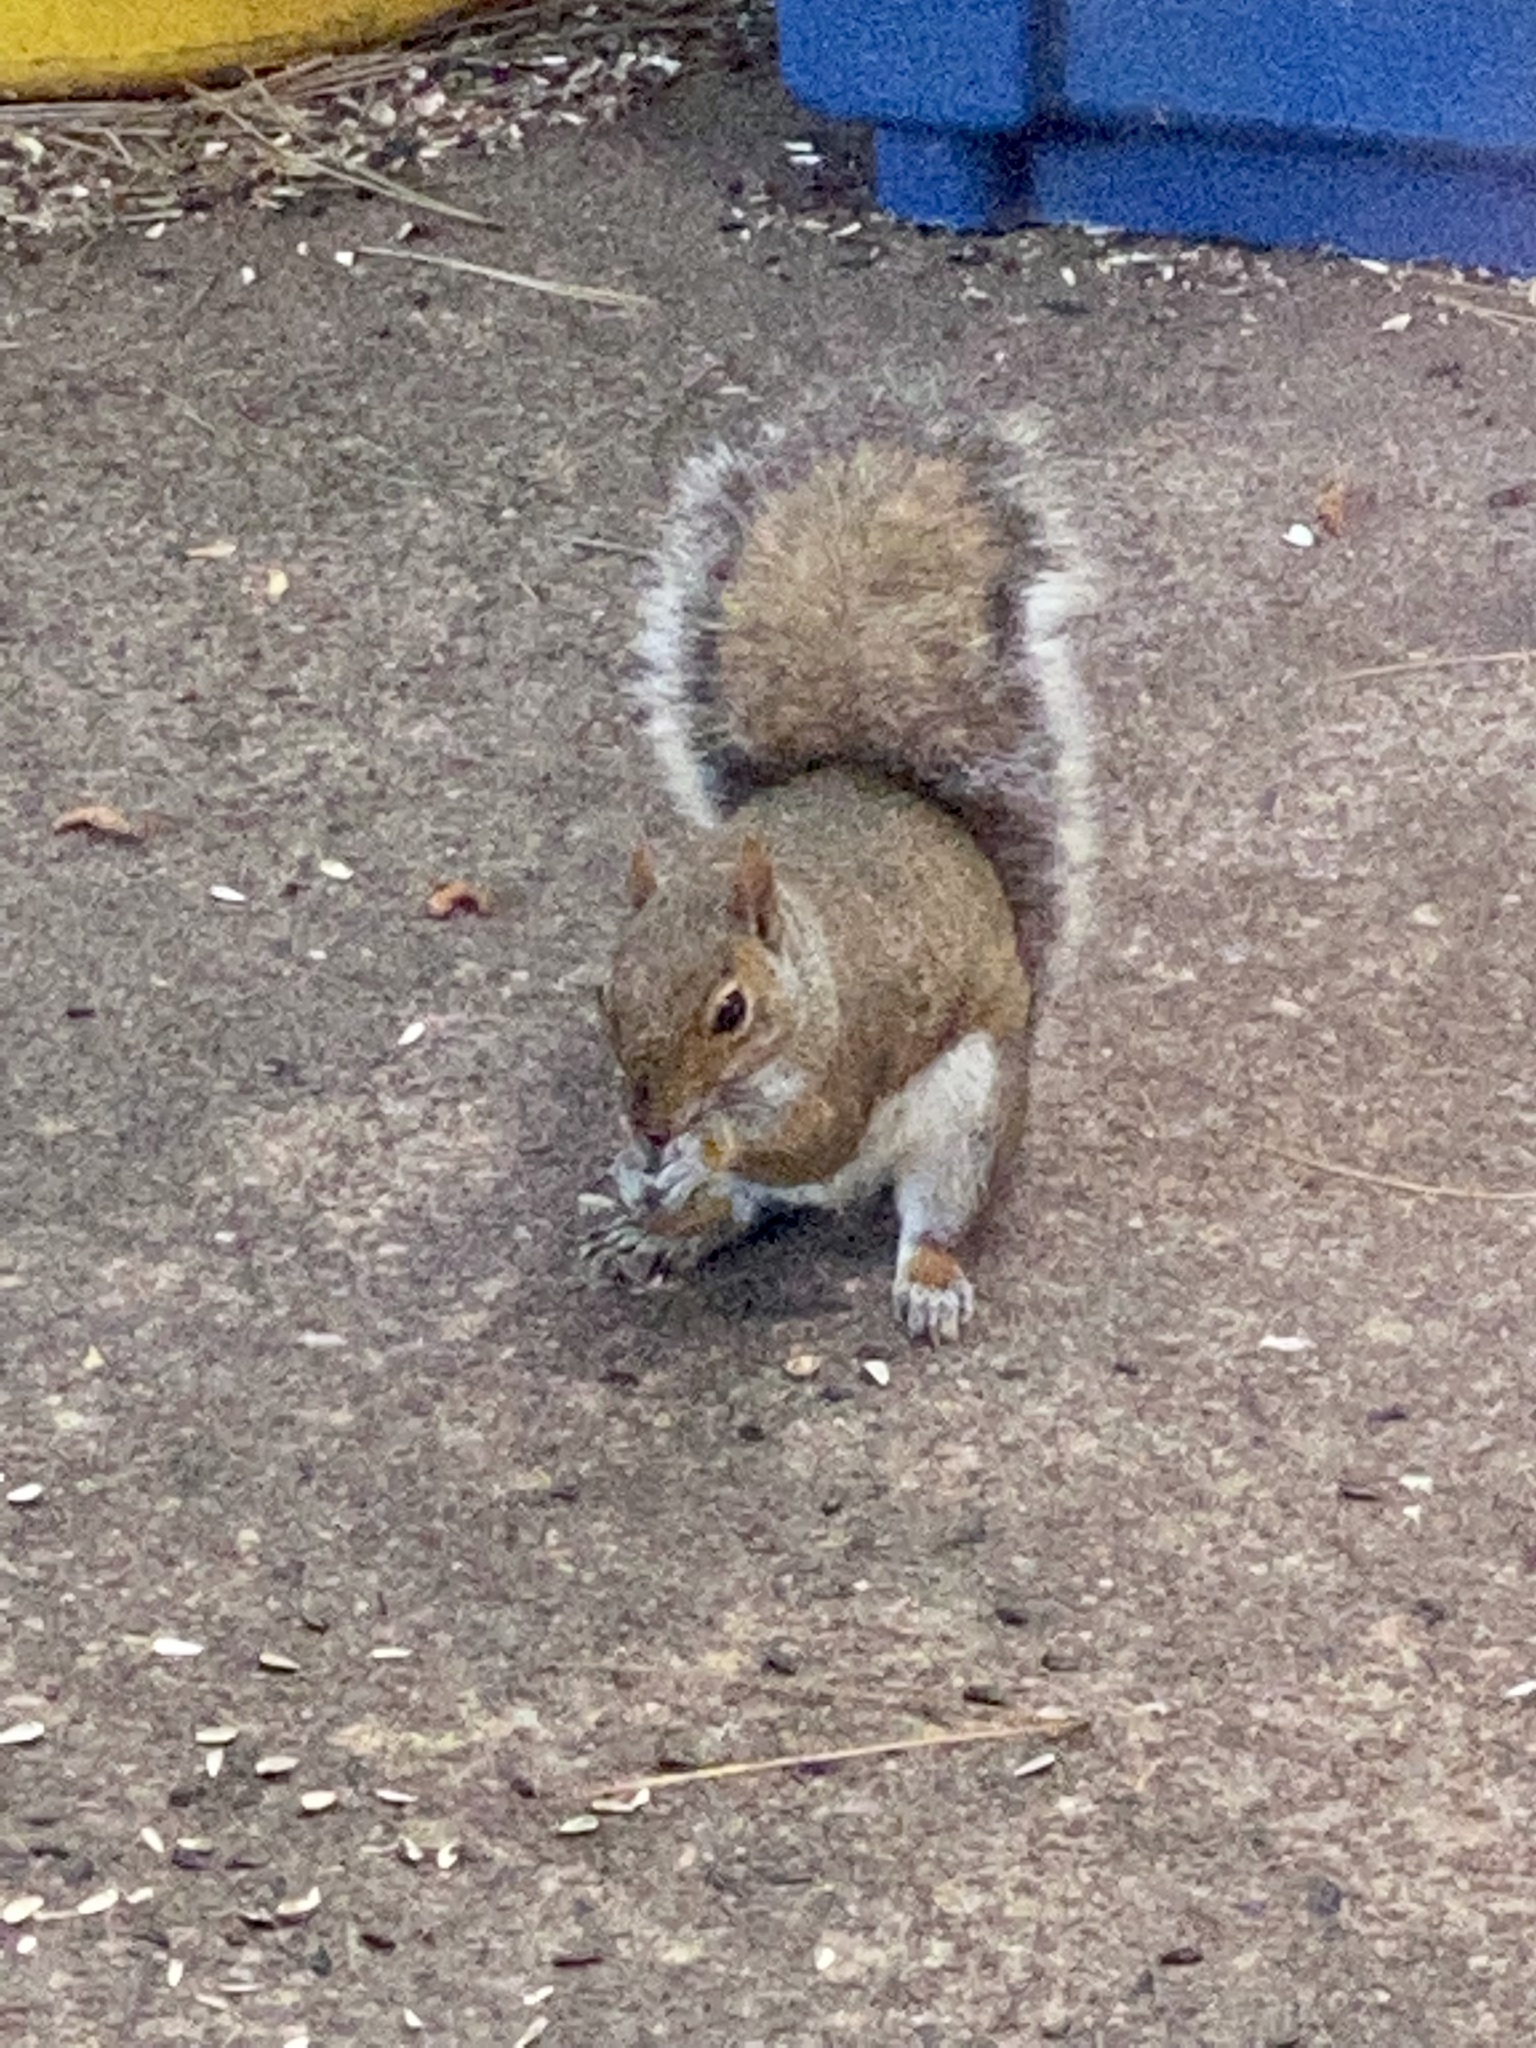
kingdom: Animalia
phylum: Chordata
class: Mammalia
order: Rodentia
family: Sciuridae
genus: Sciurus
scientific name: Sciurus carolinensis
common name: Eastern gray squirrel
